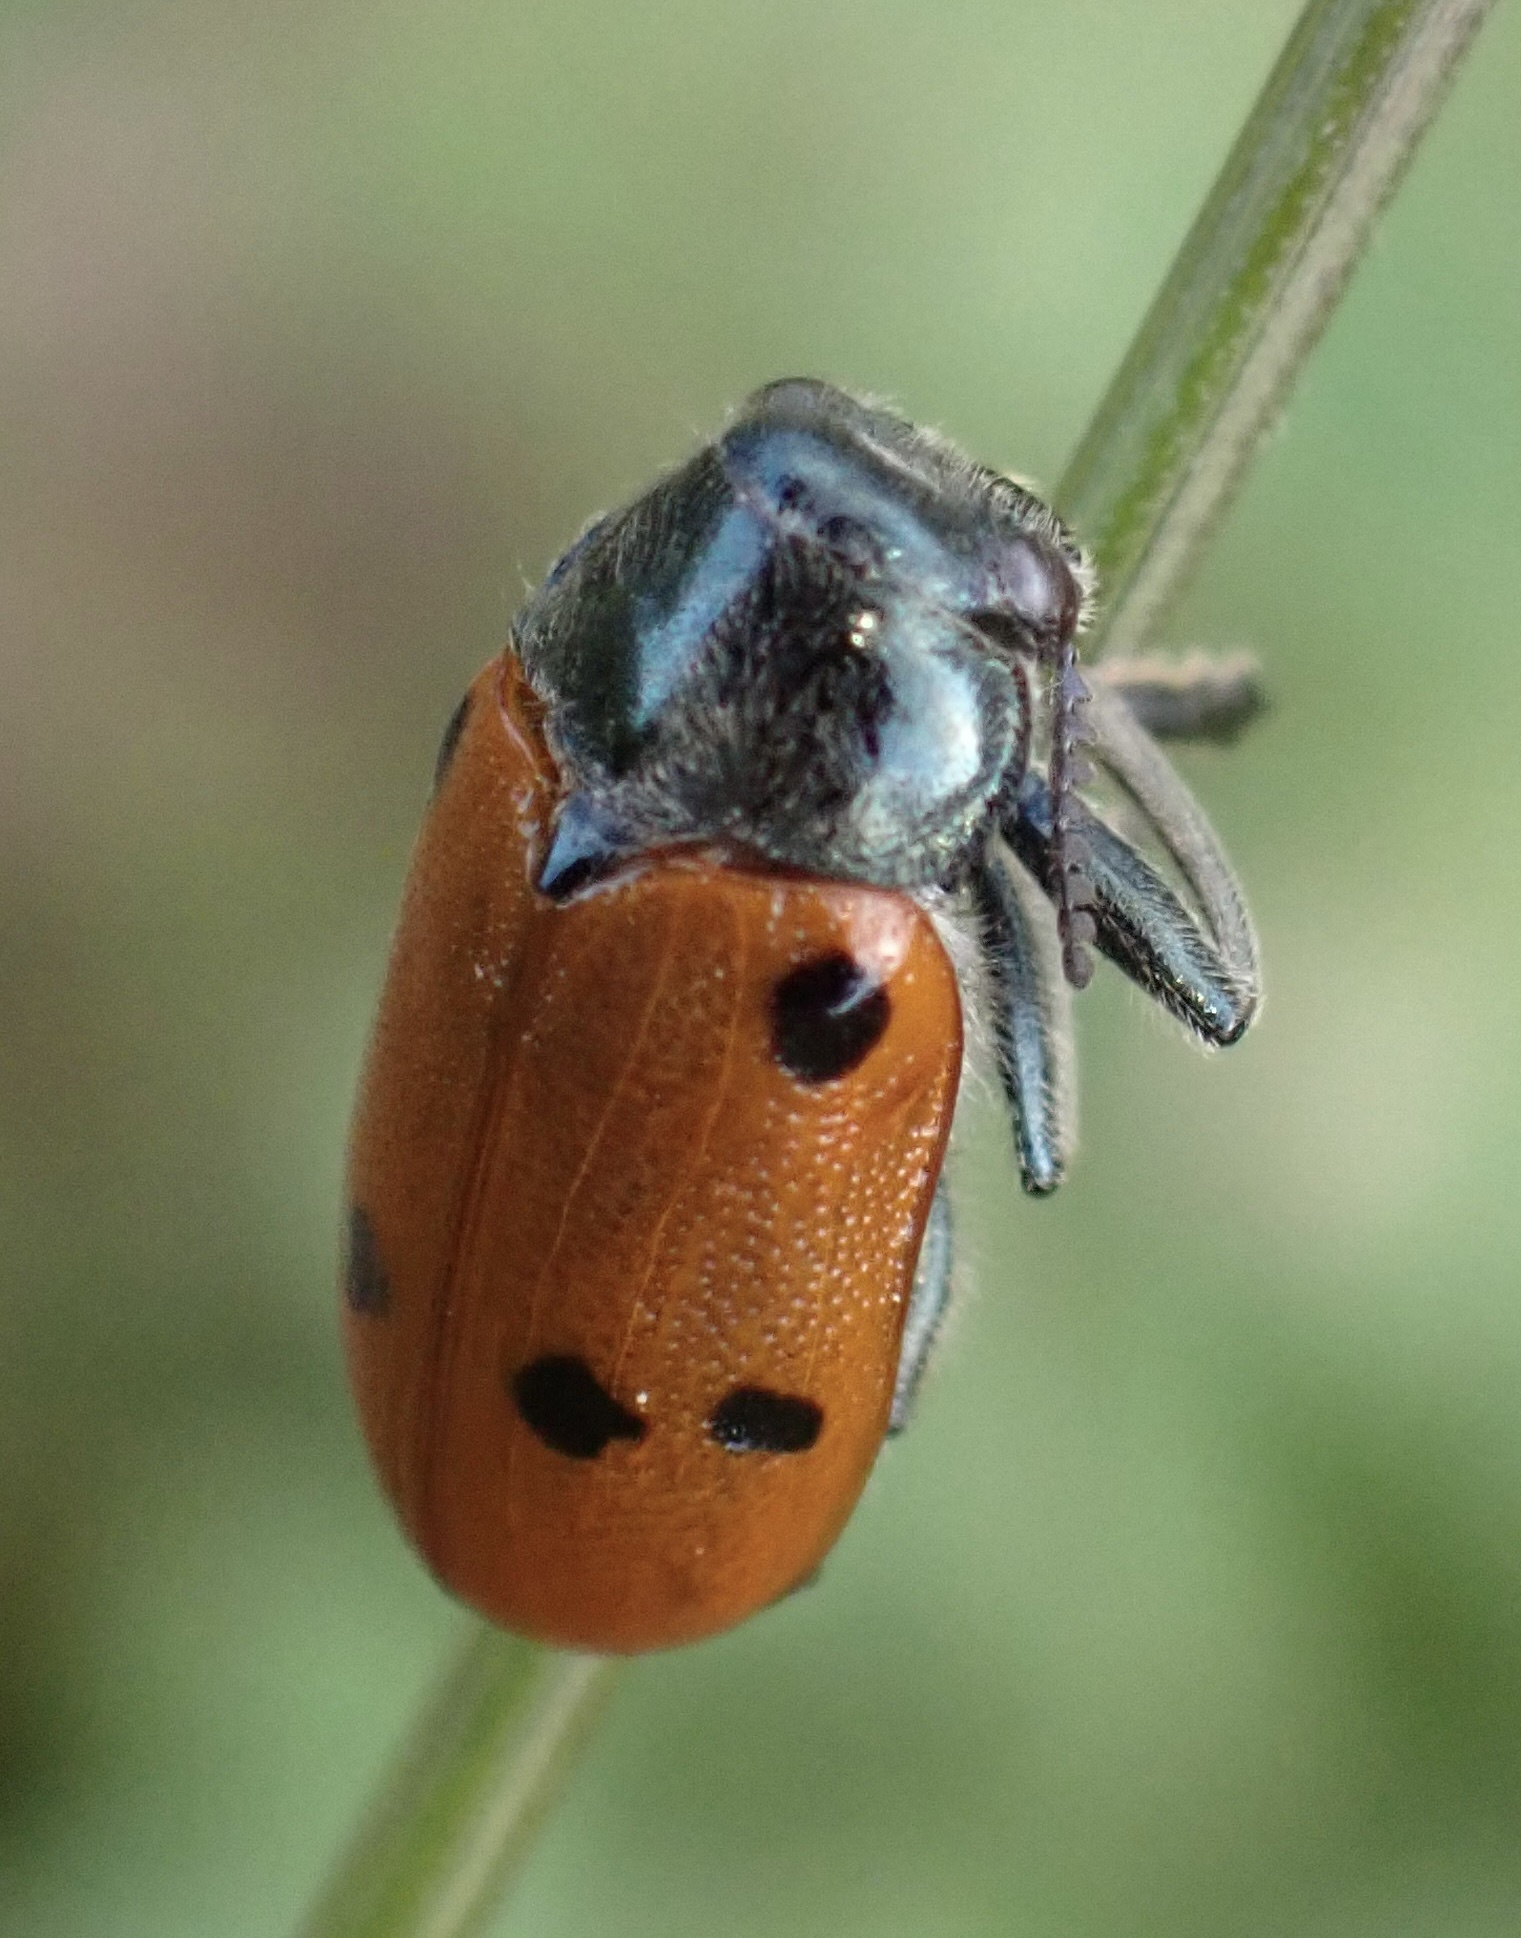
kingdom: Animalia
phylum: Arthropoda
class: Insecta
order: Coleoptera
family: Chrysomelidae
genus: Lachnaia
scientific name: Lachnaia tristigma
